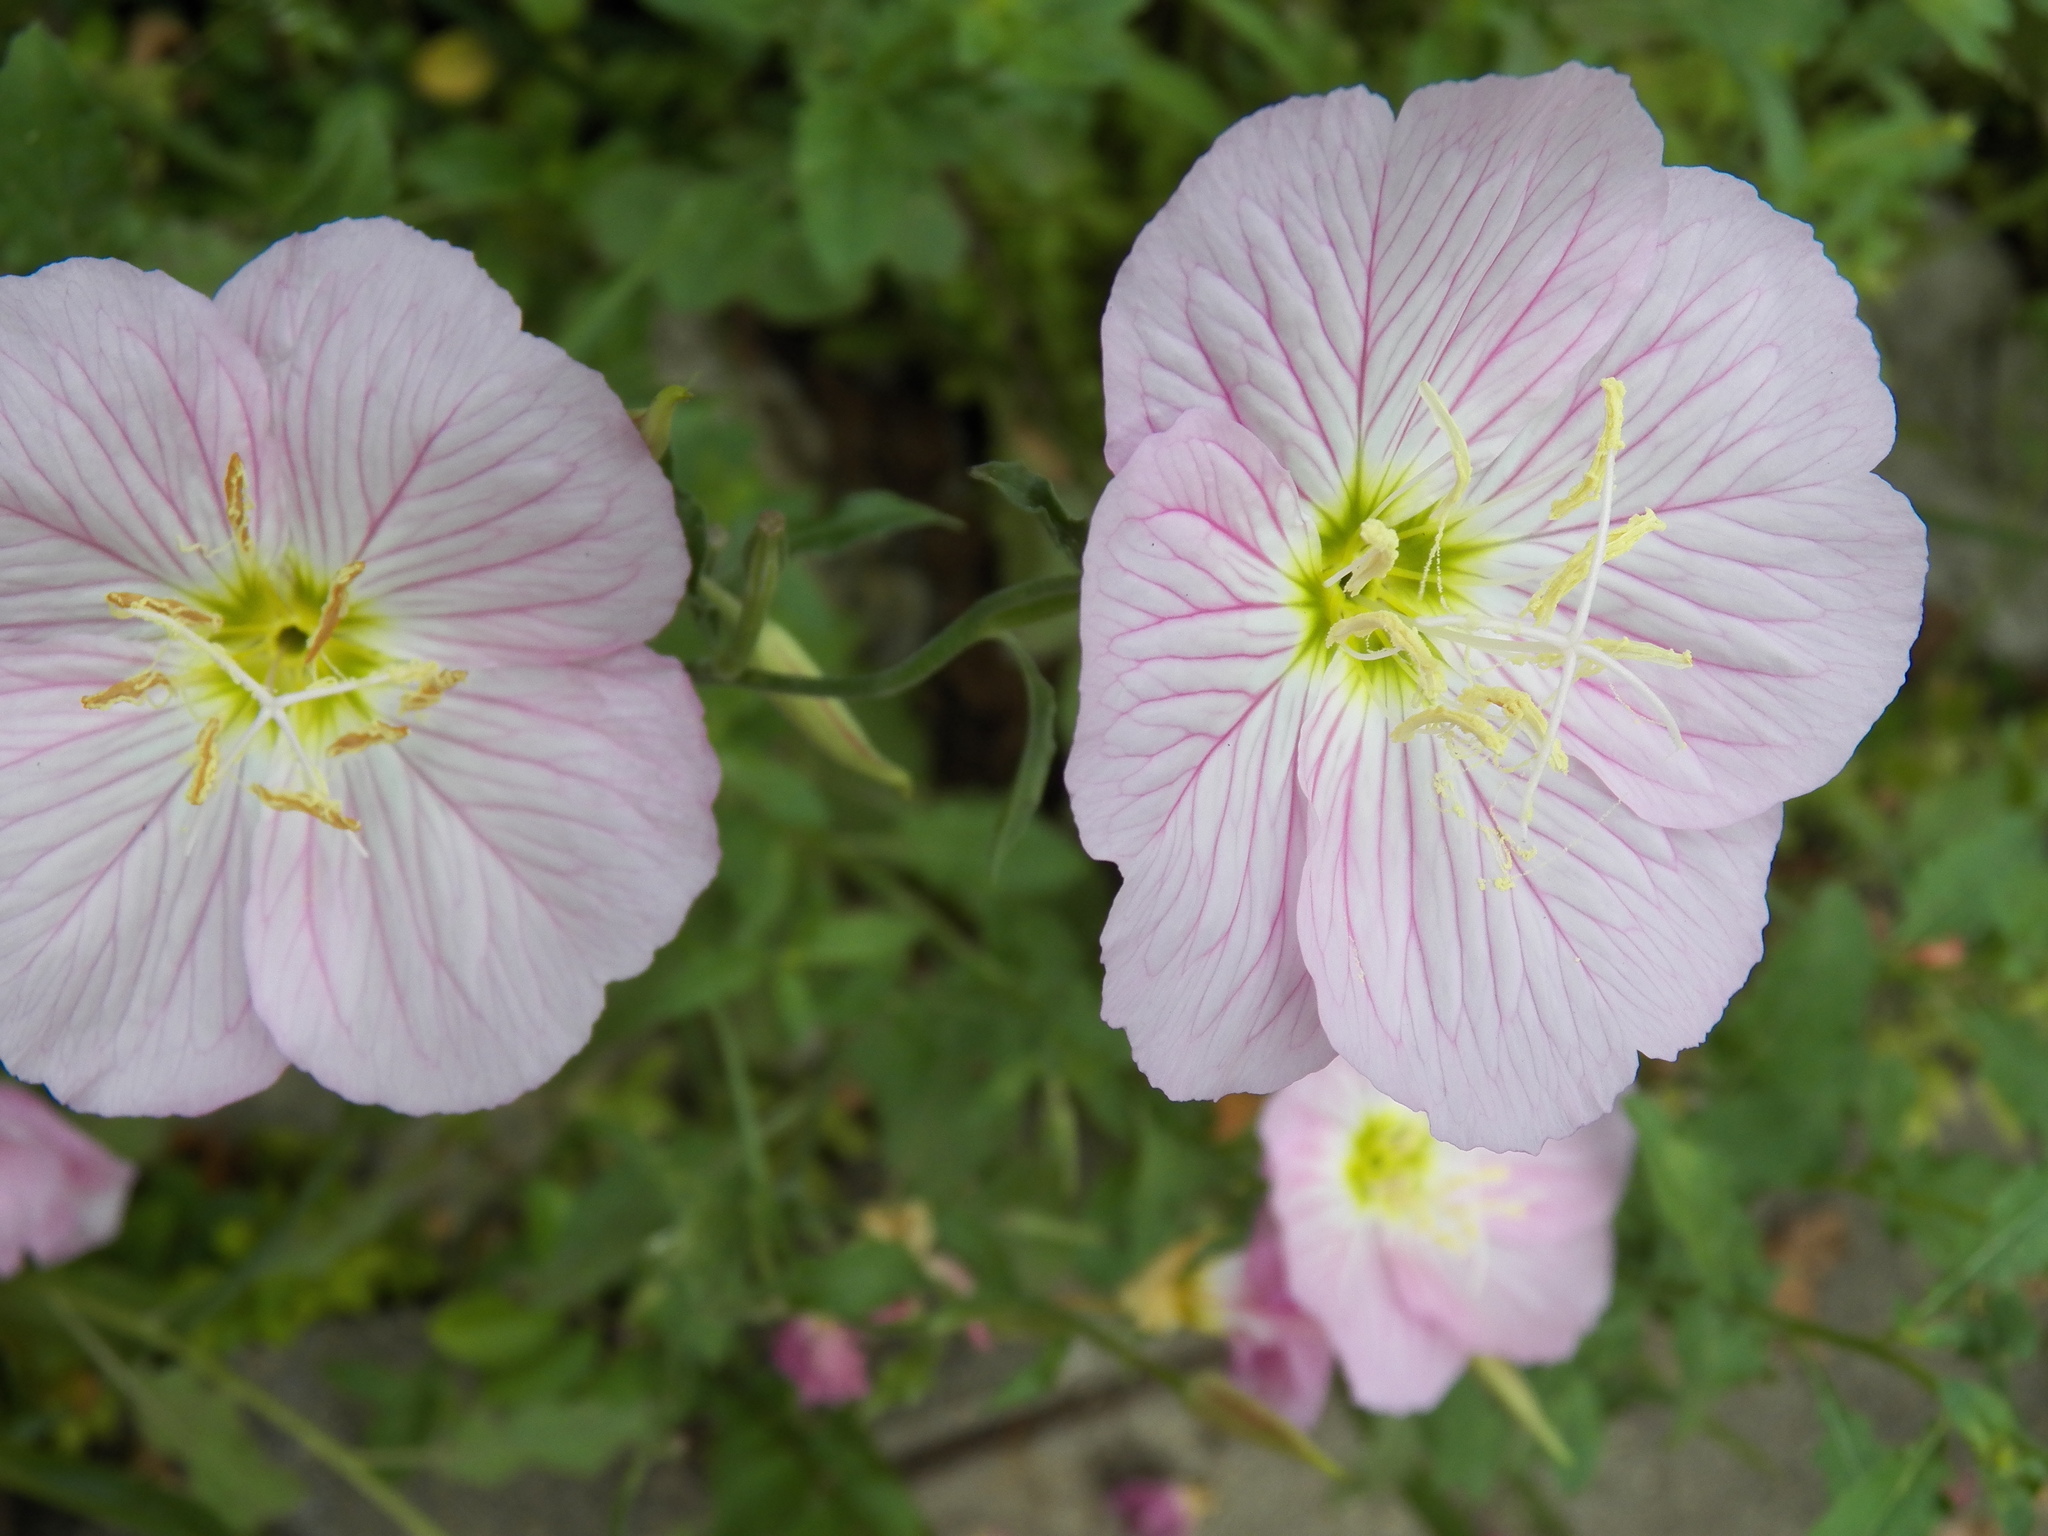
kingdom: Plantae
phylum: Tracheophyta
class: Magnoliopsida
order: Myrtales
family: Onagraceae
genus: Oenothera
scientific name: Oenothera speciosa
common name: White evening-primrose
